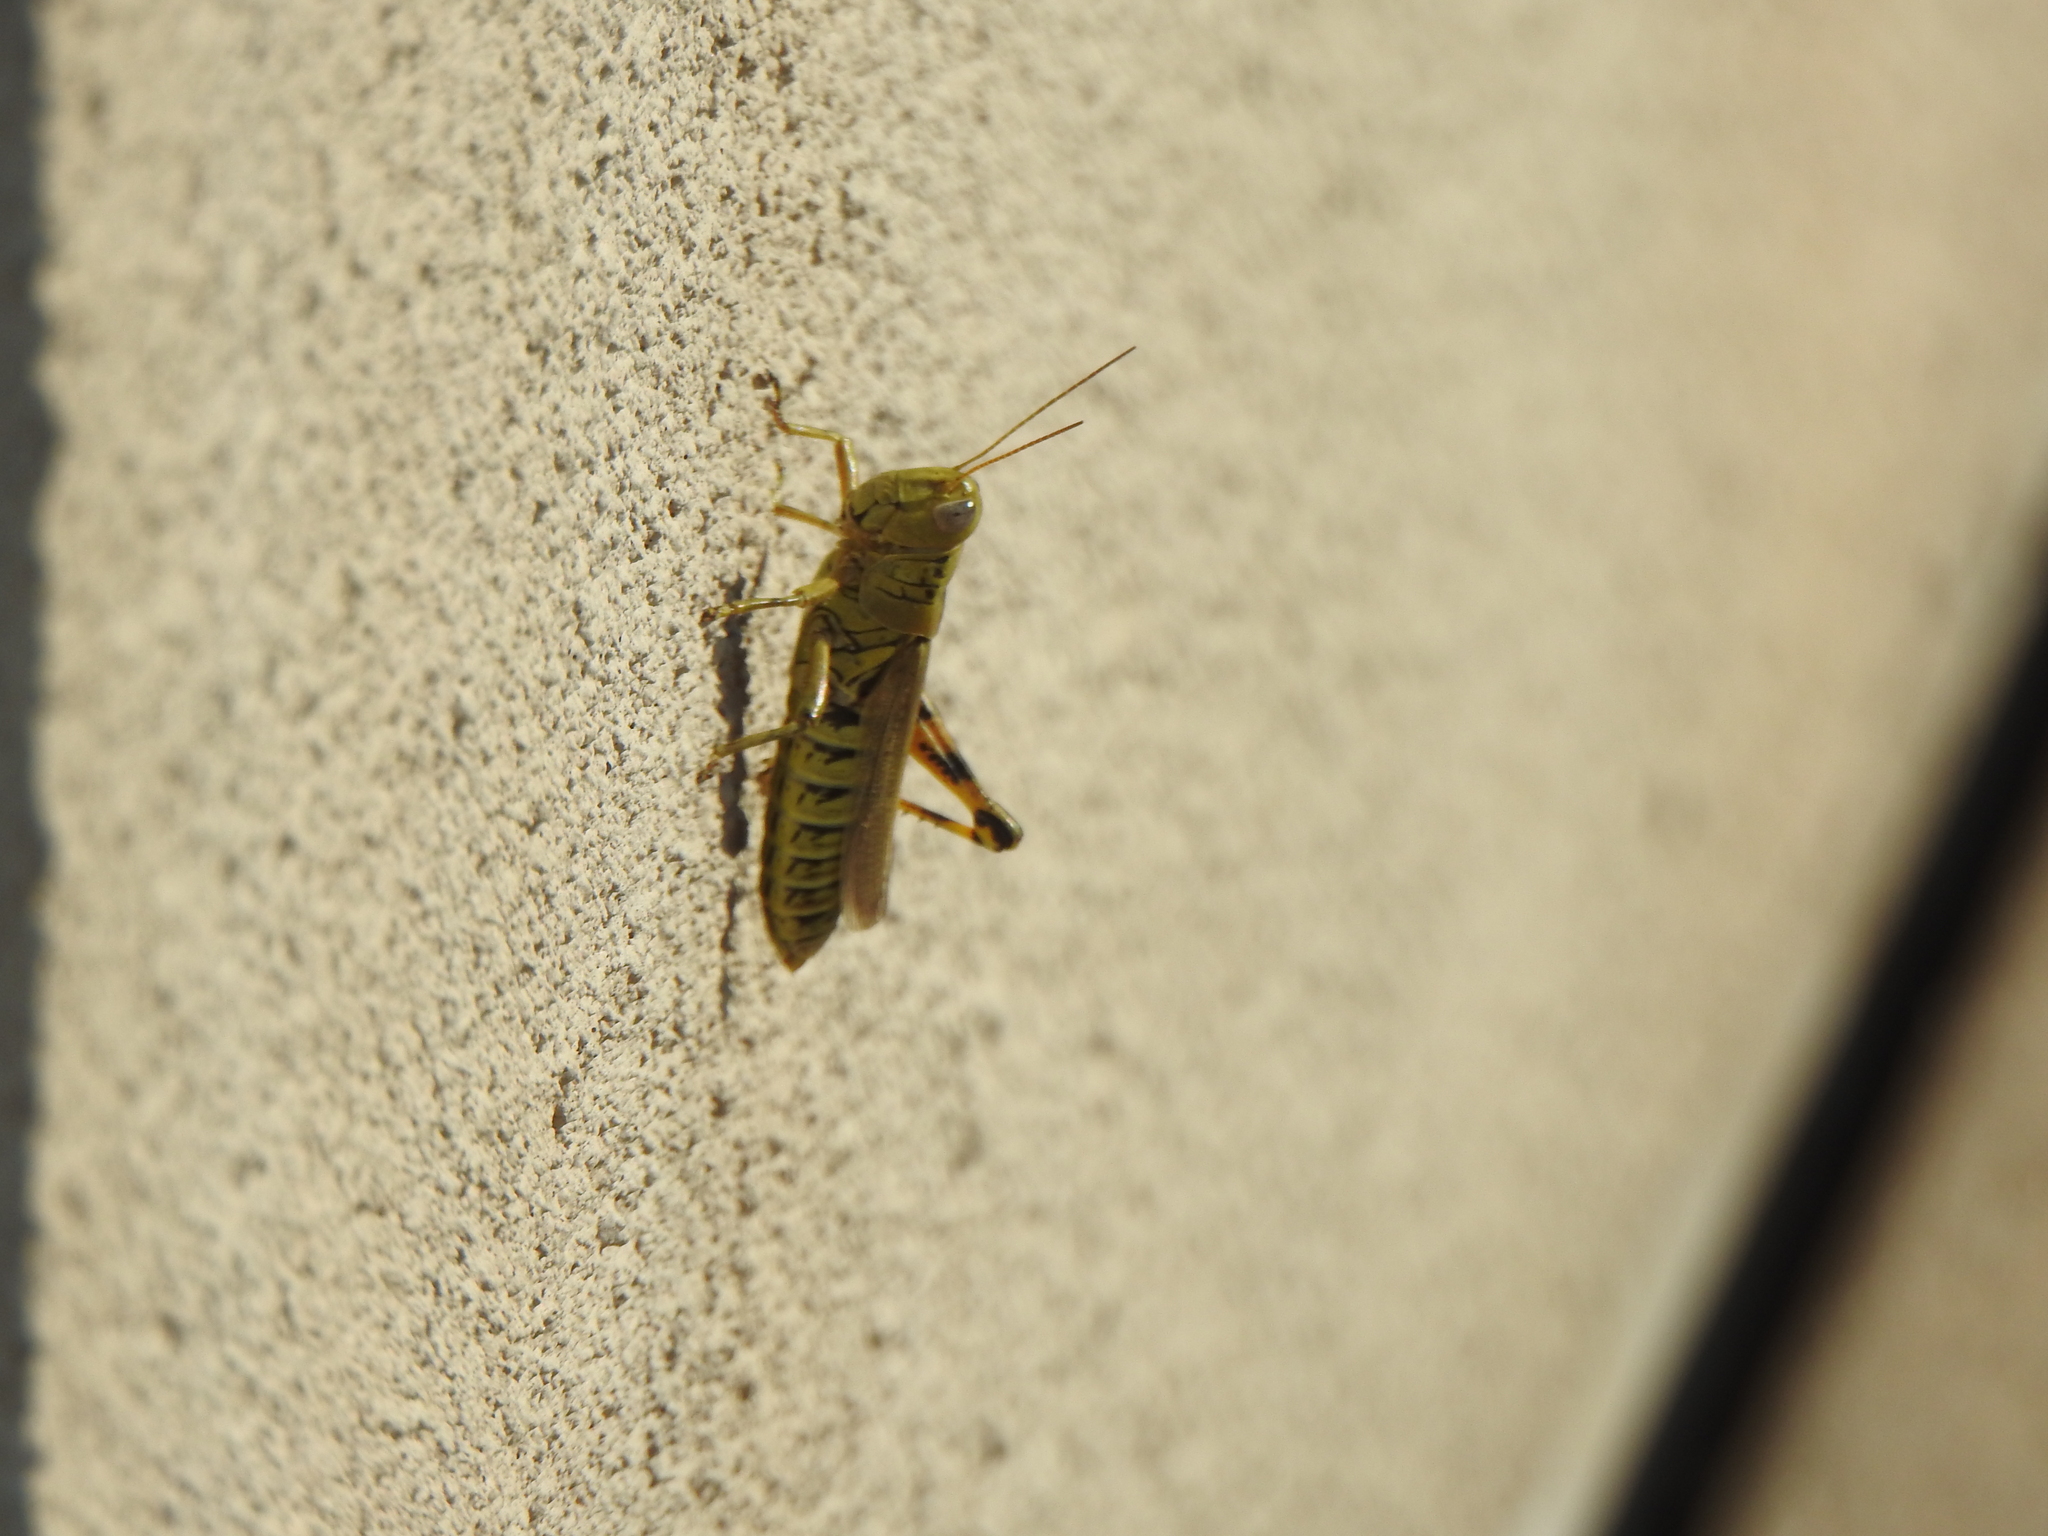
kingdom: Animalia
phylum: Arthropoda
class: Insecta
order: Orthoptera
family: Acrididae
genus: Melanoplus
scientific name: Melanoplus differentialis
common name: Differential grasshopper
